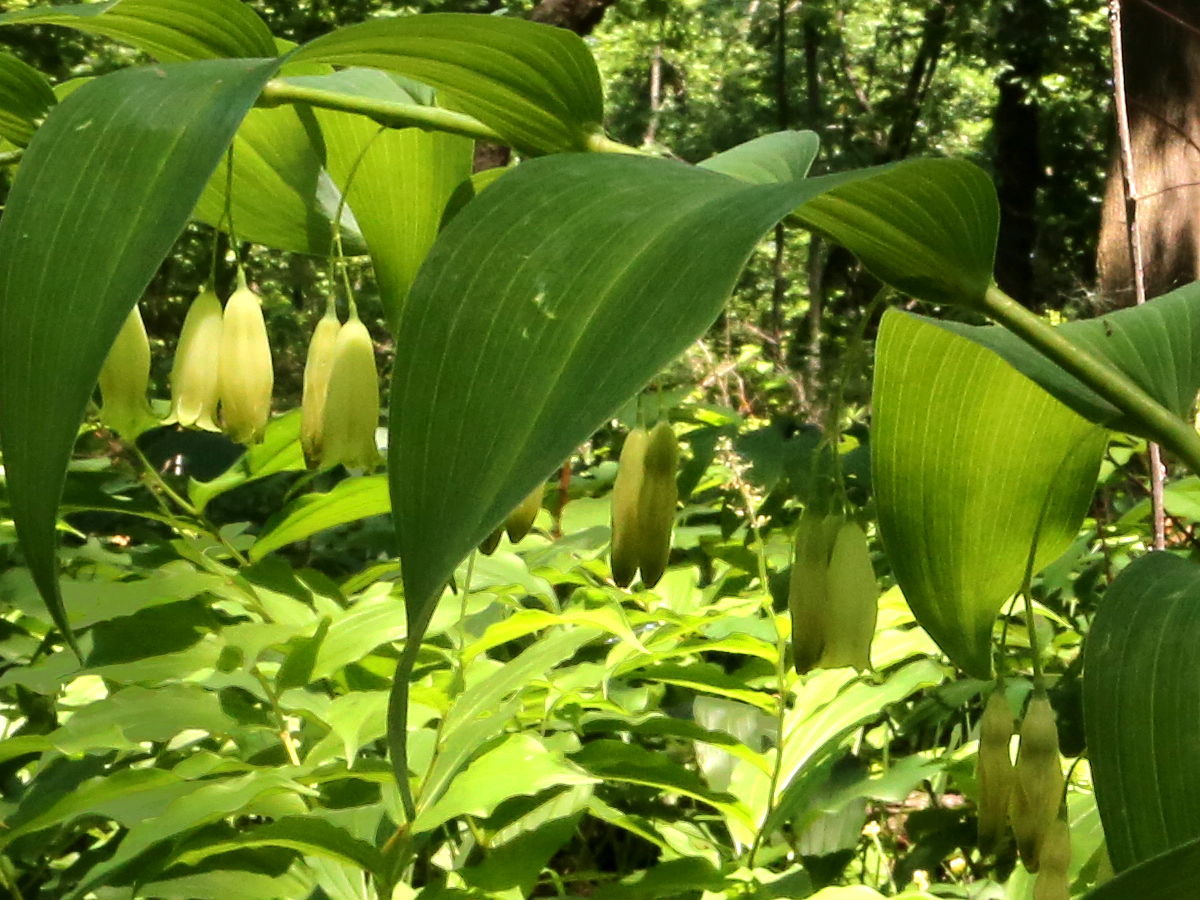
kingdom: Plantae
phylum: Tracheophyta
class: Liliopsida
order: Asparagales
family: Asparagaceae
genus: Polygonatum
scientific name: Polygonatum biflorum
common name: American solomon's-seal
